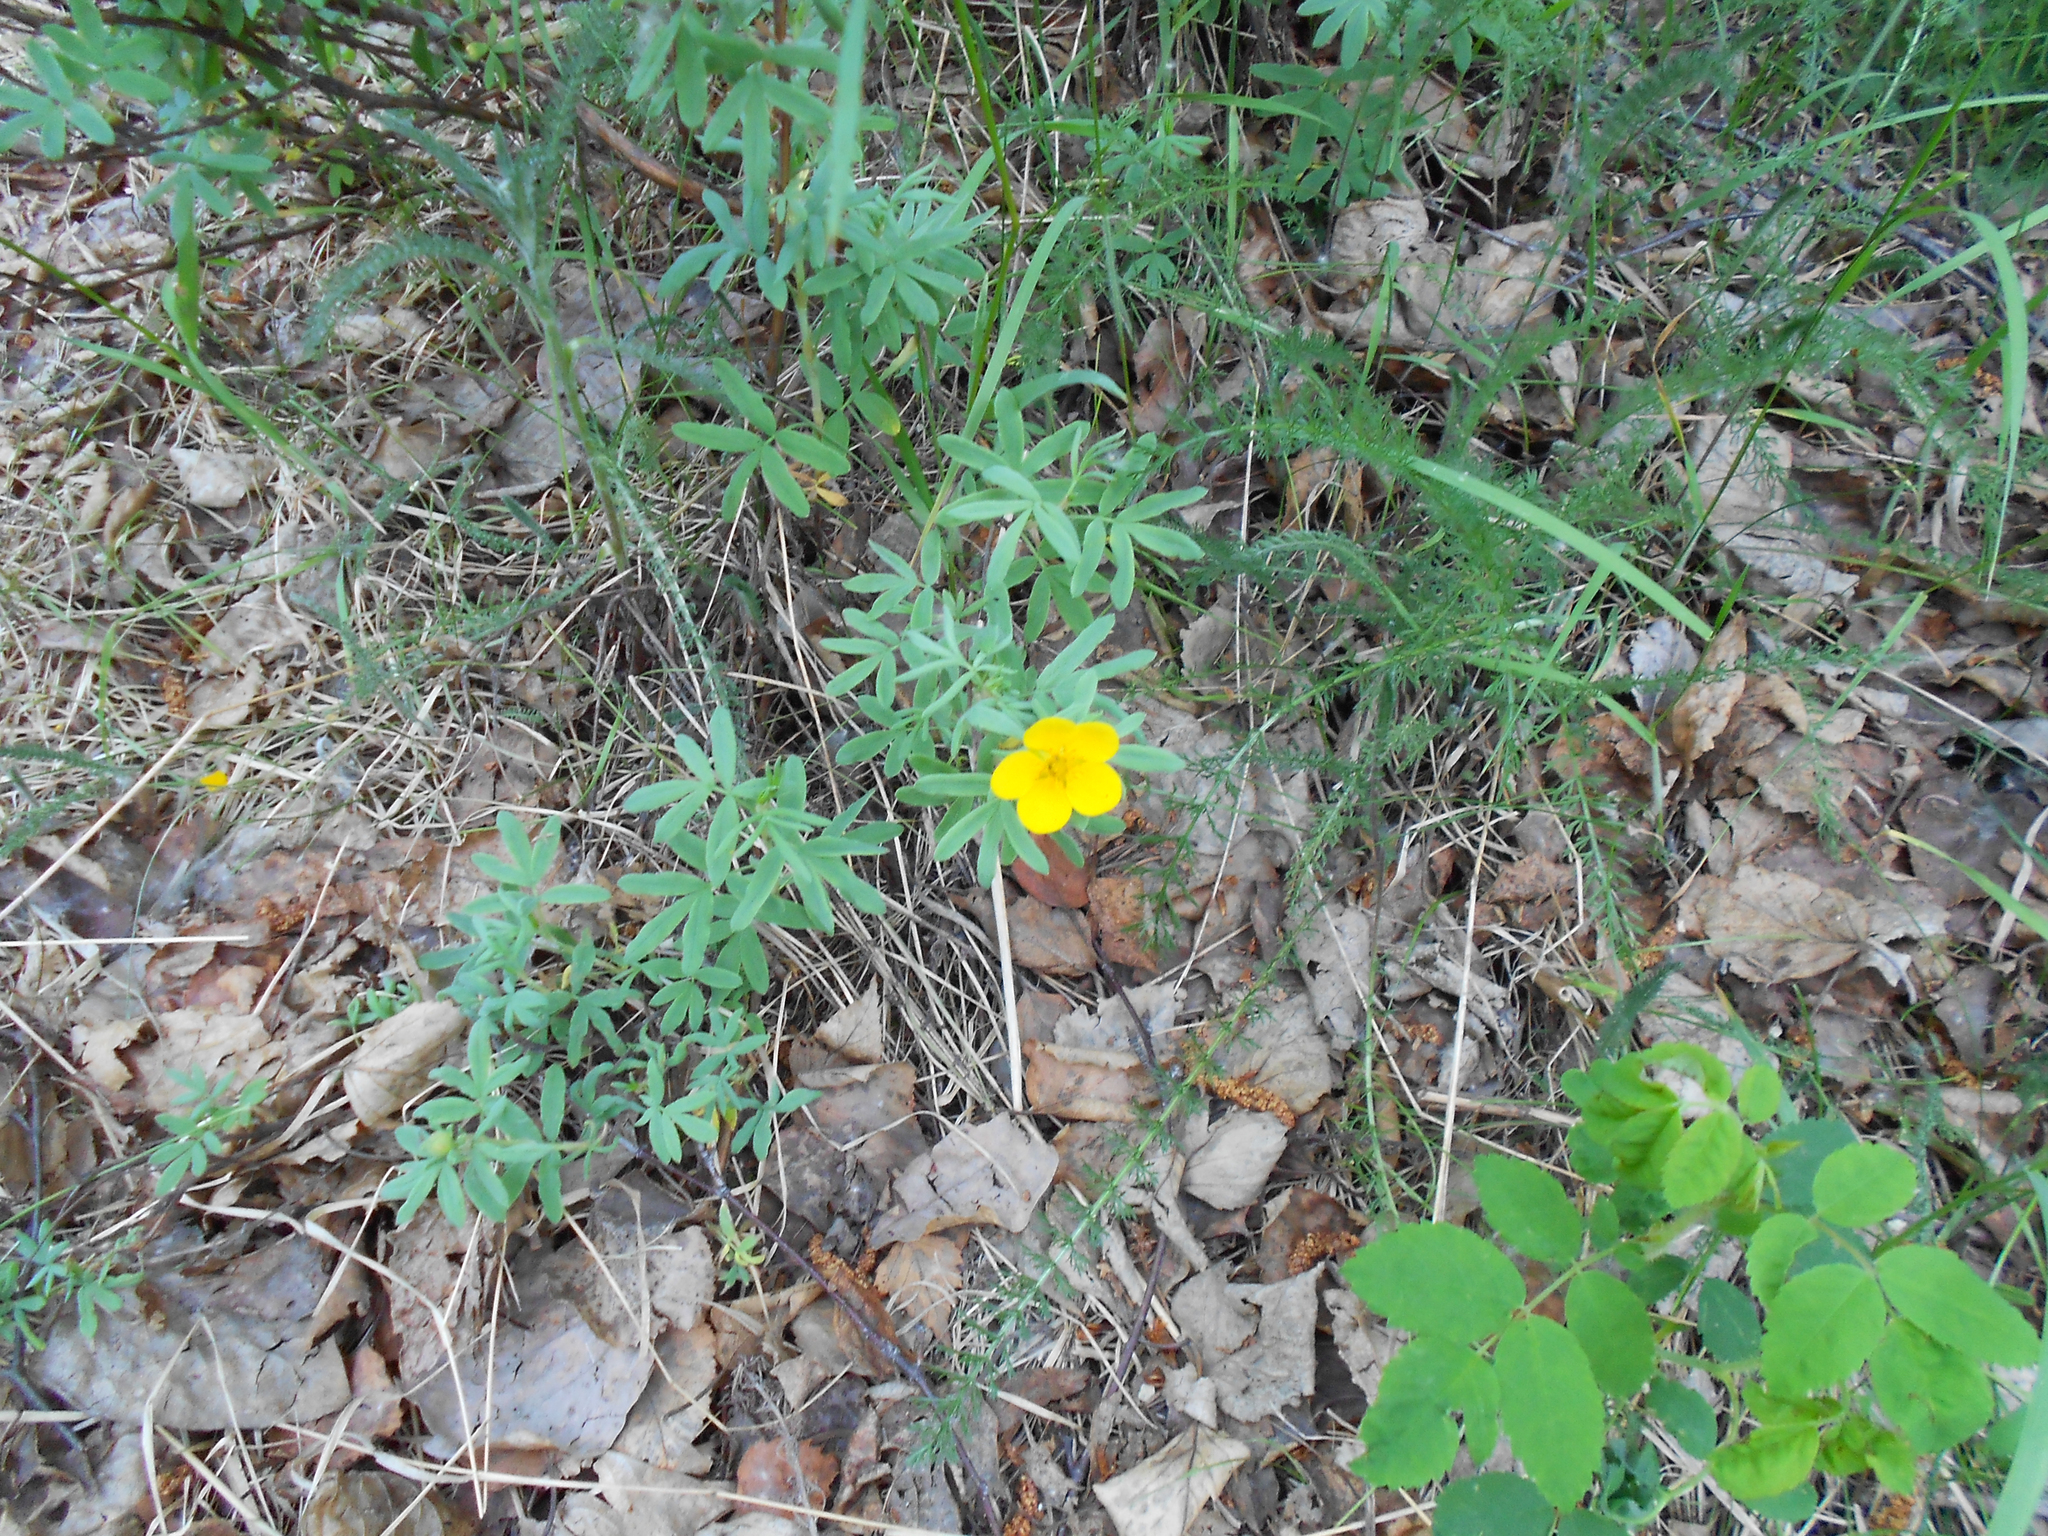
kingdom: Plantae
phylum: Tracheophyta
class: Magnoliopsida
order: Rosales
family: Rosaceae
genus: Dasiphora
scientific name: Dasiphora fruticosa
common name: Shrubby cinquefoil
